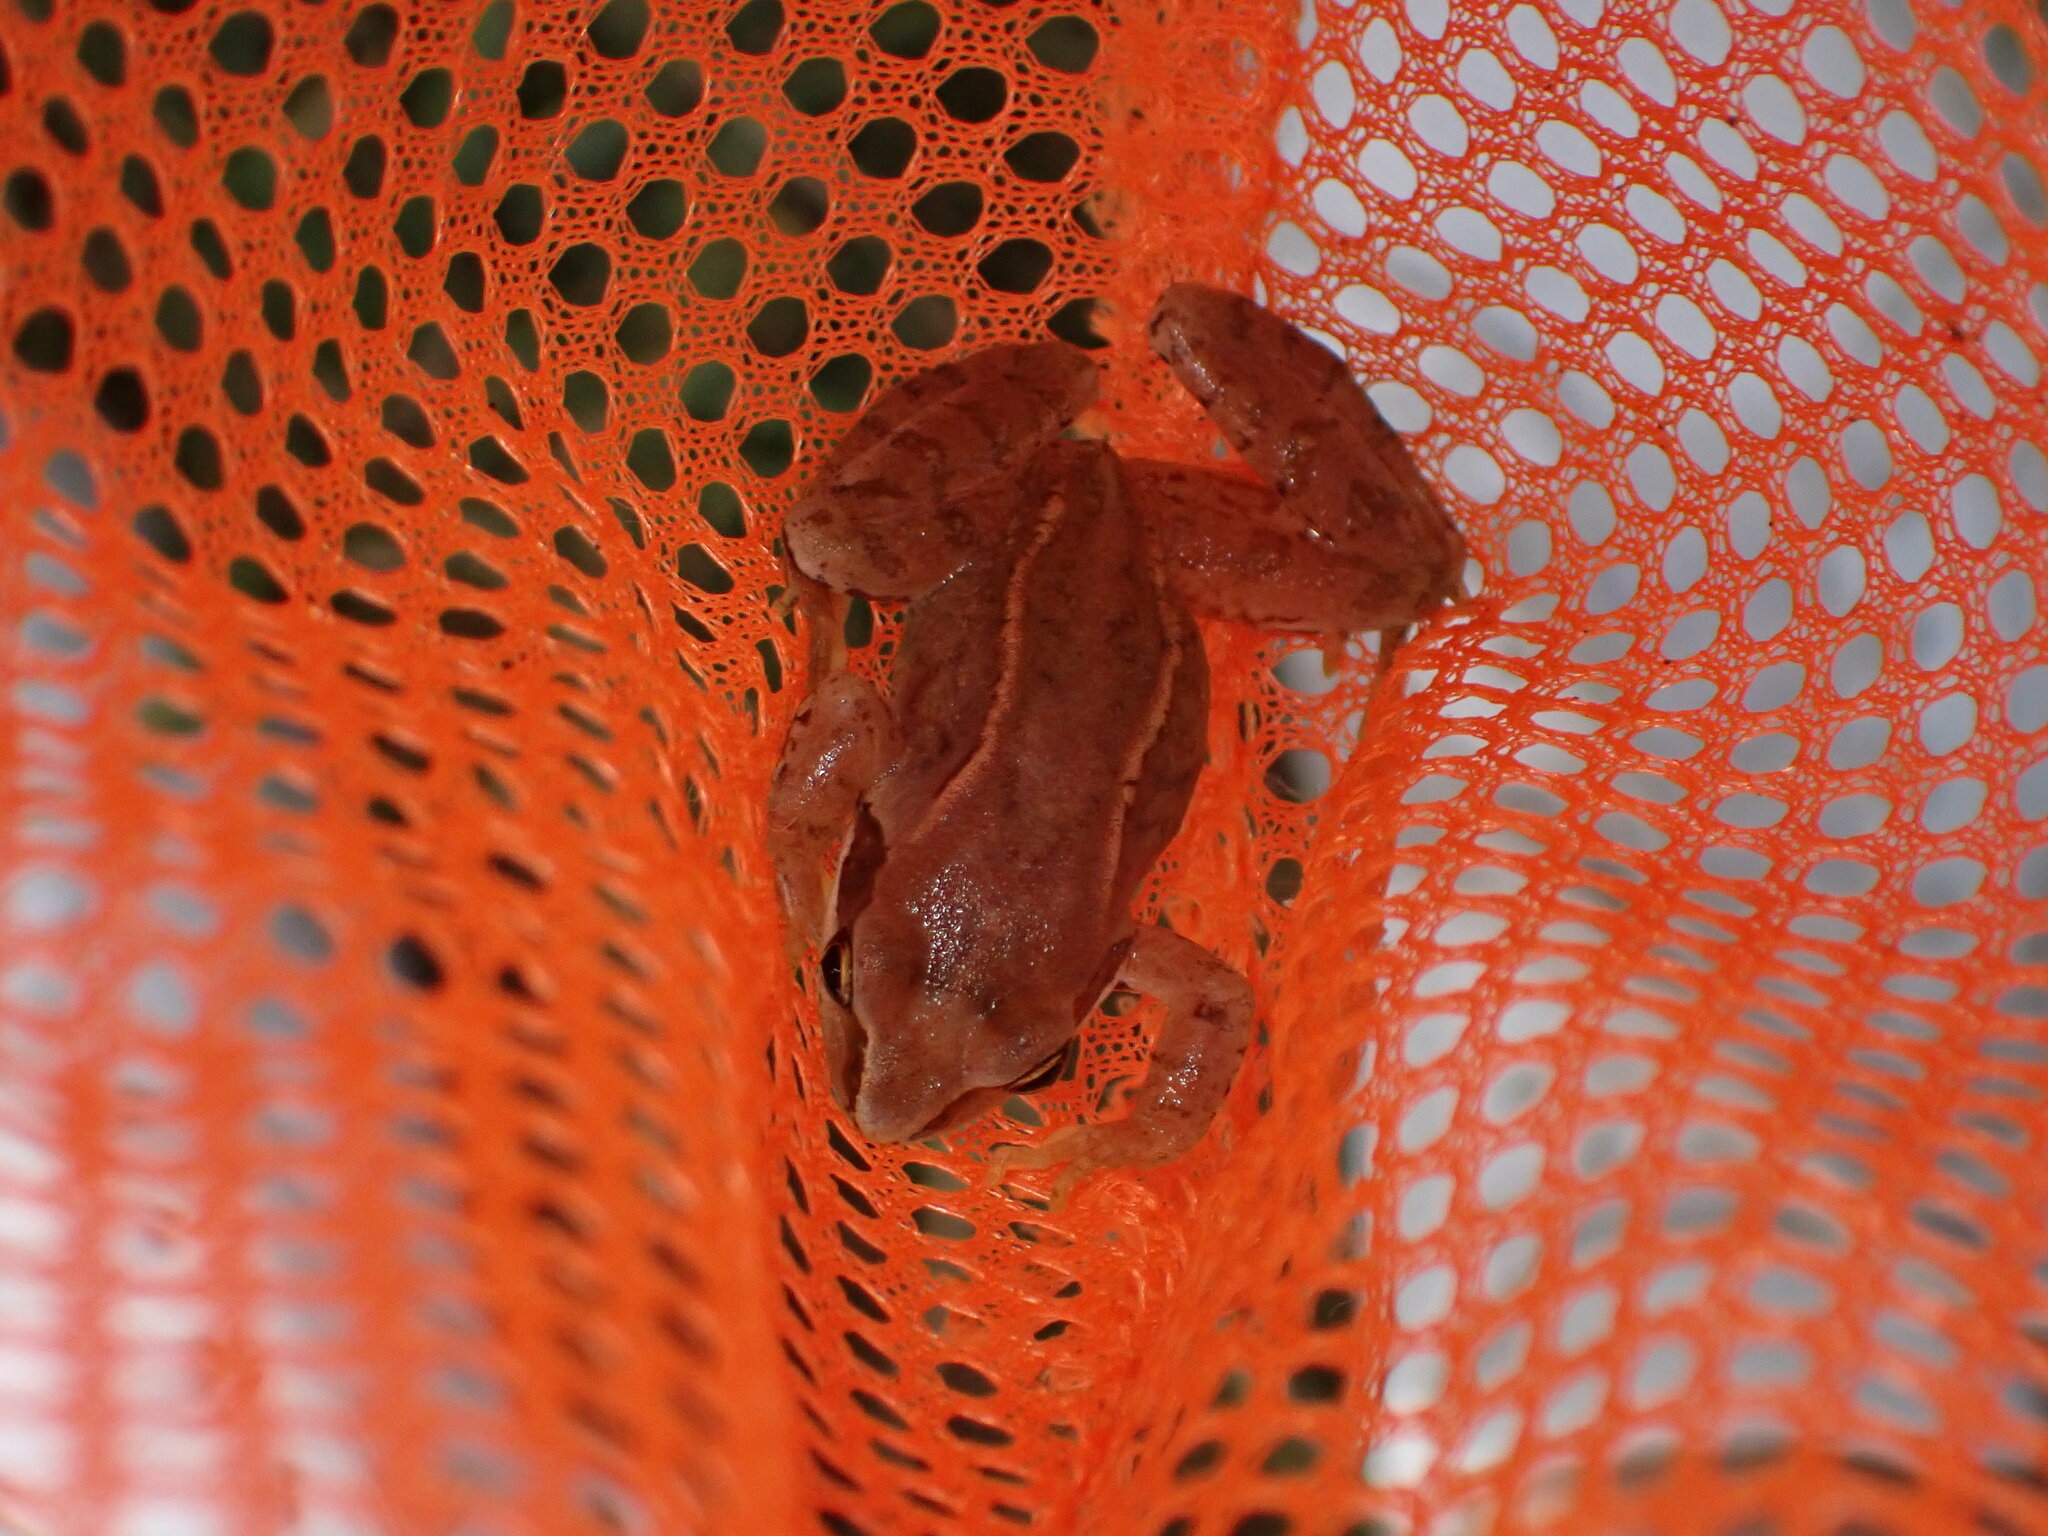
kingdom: Animalia
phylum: Chordata
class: Amphibia
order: Anura
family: Ranidae
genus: Rana
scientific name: Rana temporaria
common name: Common frog
